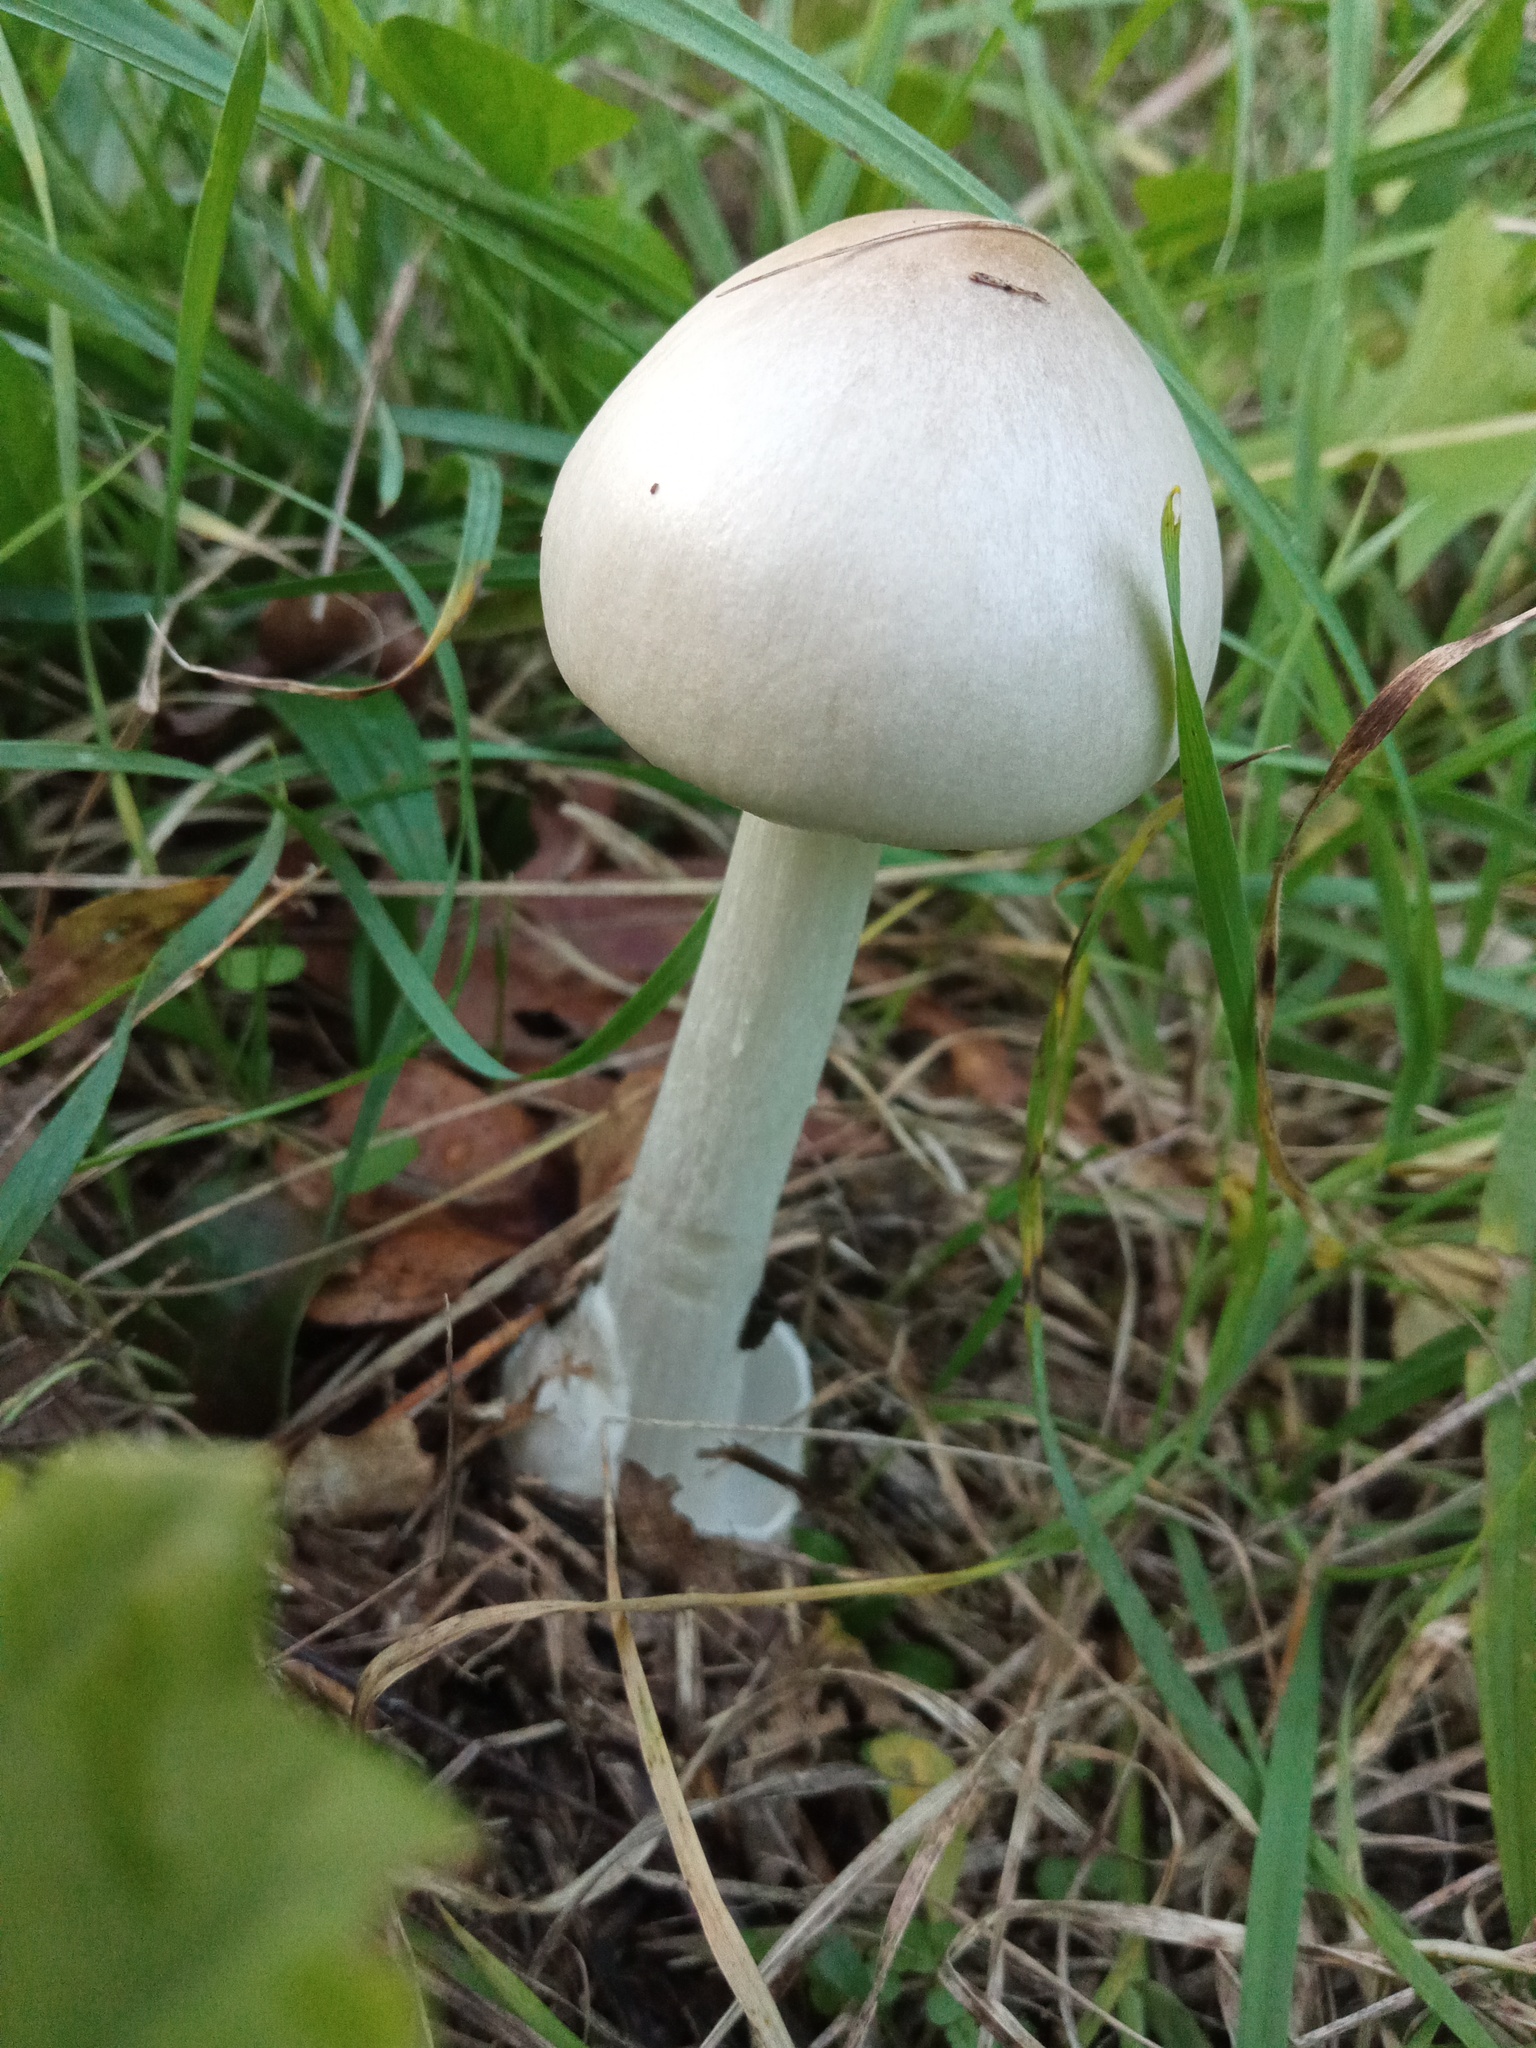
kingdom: Fungi
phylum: Basidiomycota
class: Agaricomycetes
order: Agaricales
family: Pluteaceae
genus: Volvopluteus
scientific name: Volvopluteus gloiocephalus
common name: Stubble rosegill
